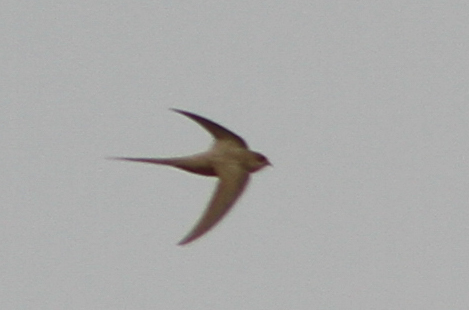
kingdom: Animalia
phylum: Chordata
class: Aves
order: Apodiformes
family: Apodidae
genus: Cypsiurus
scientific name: Cypsiurus parvus
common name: African palm swift
